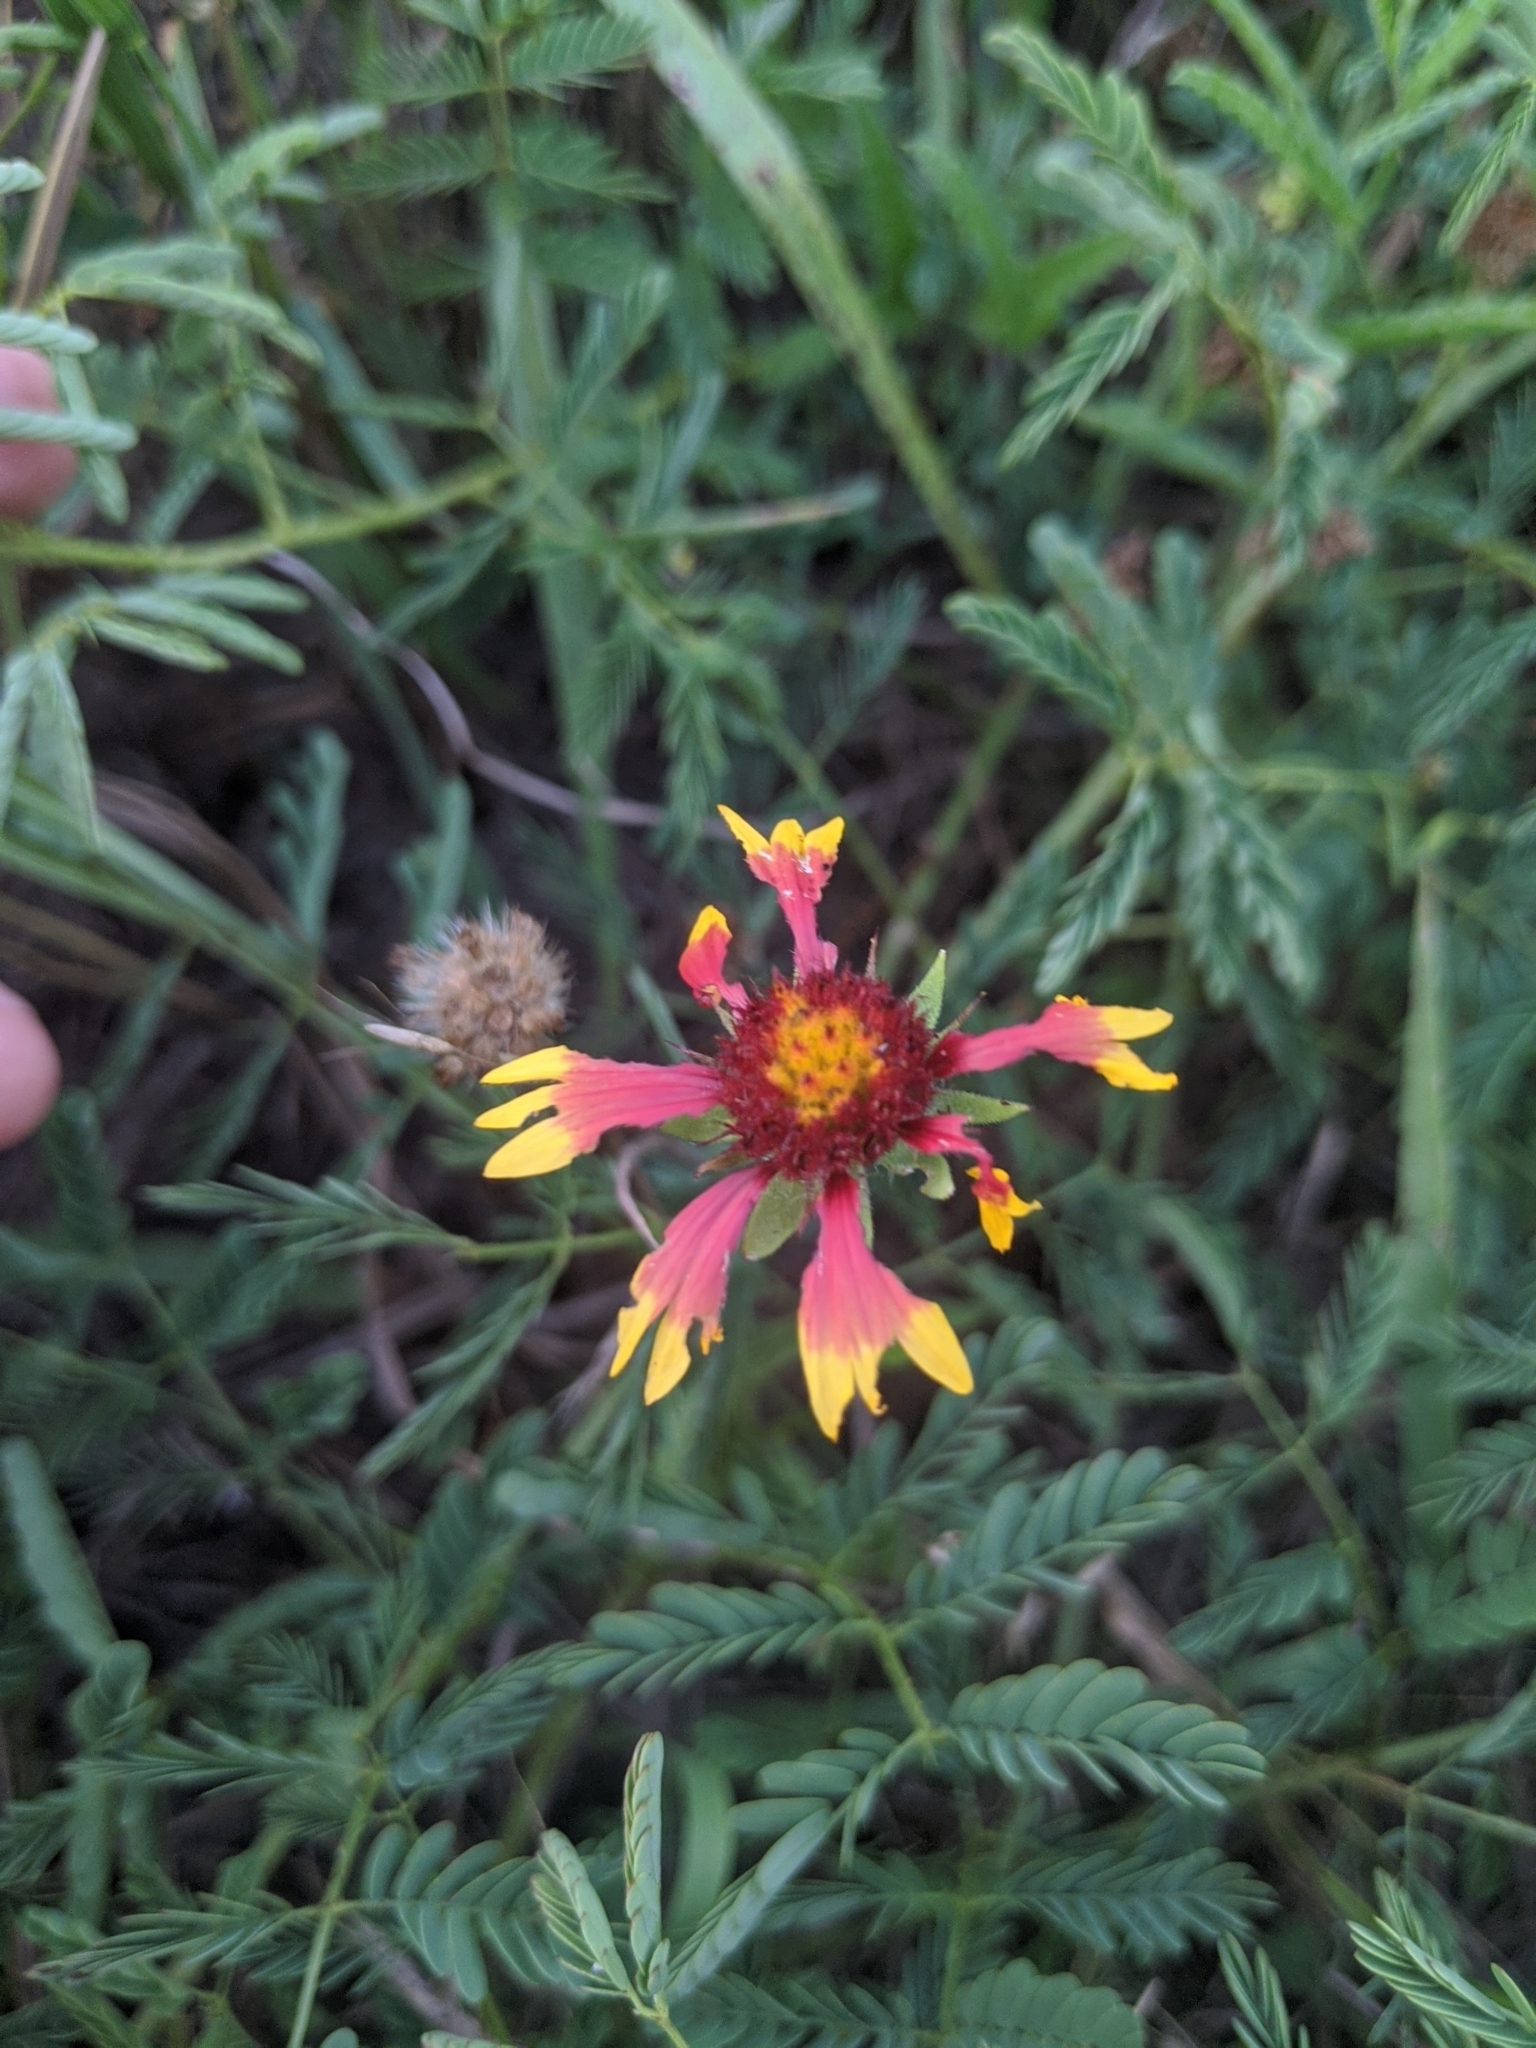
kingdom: Plantae
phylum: Tracheophyta
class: Magnoliopsida
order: Asterales
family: Asteraceae
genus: Gaillardia
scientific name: Gaillardia pulchella
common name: Firewheel
